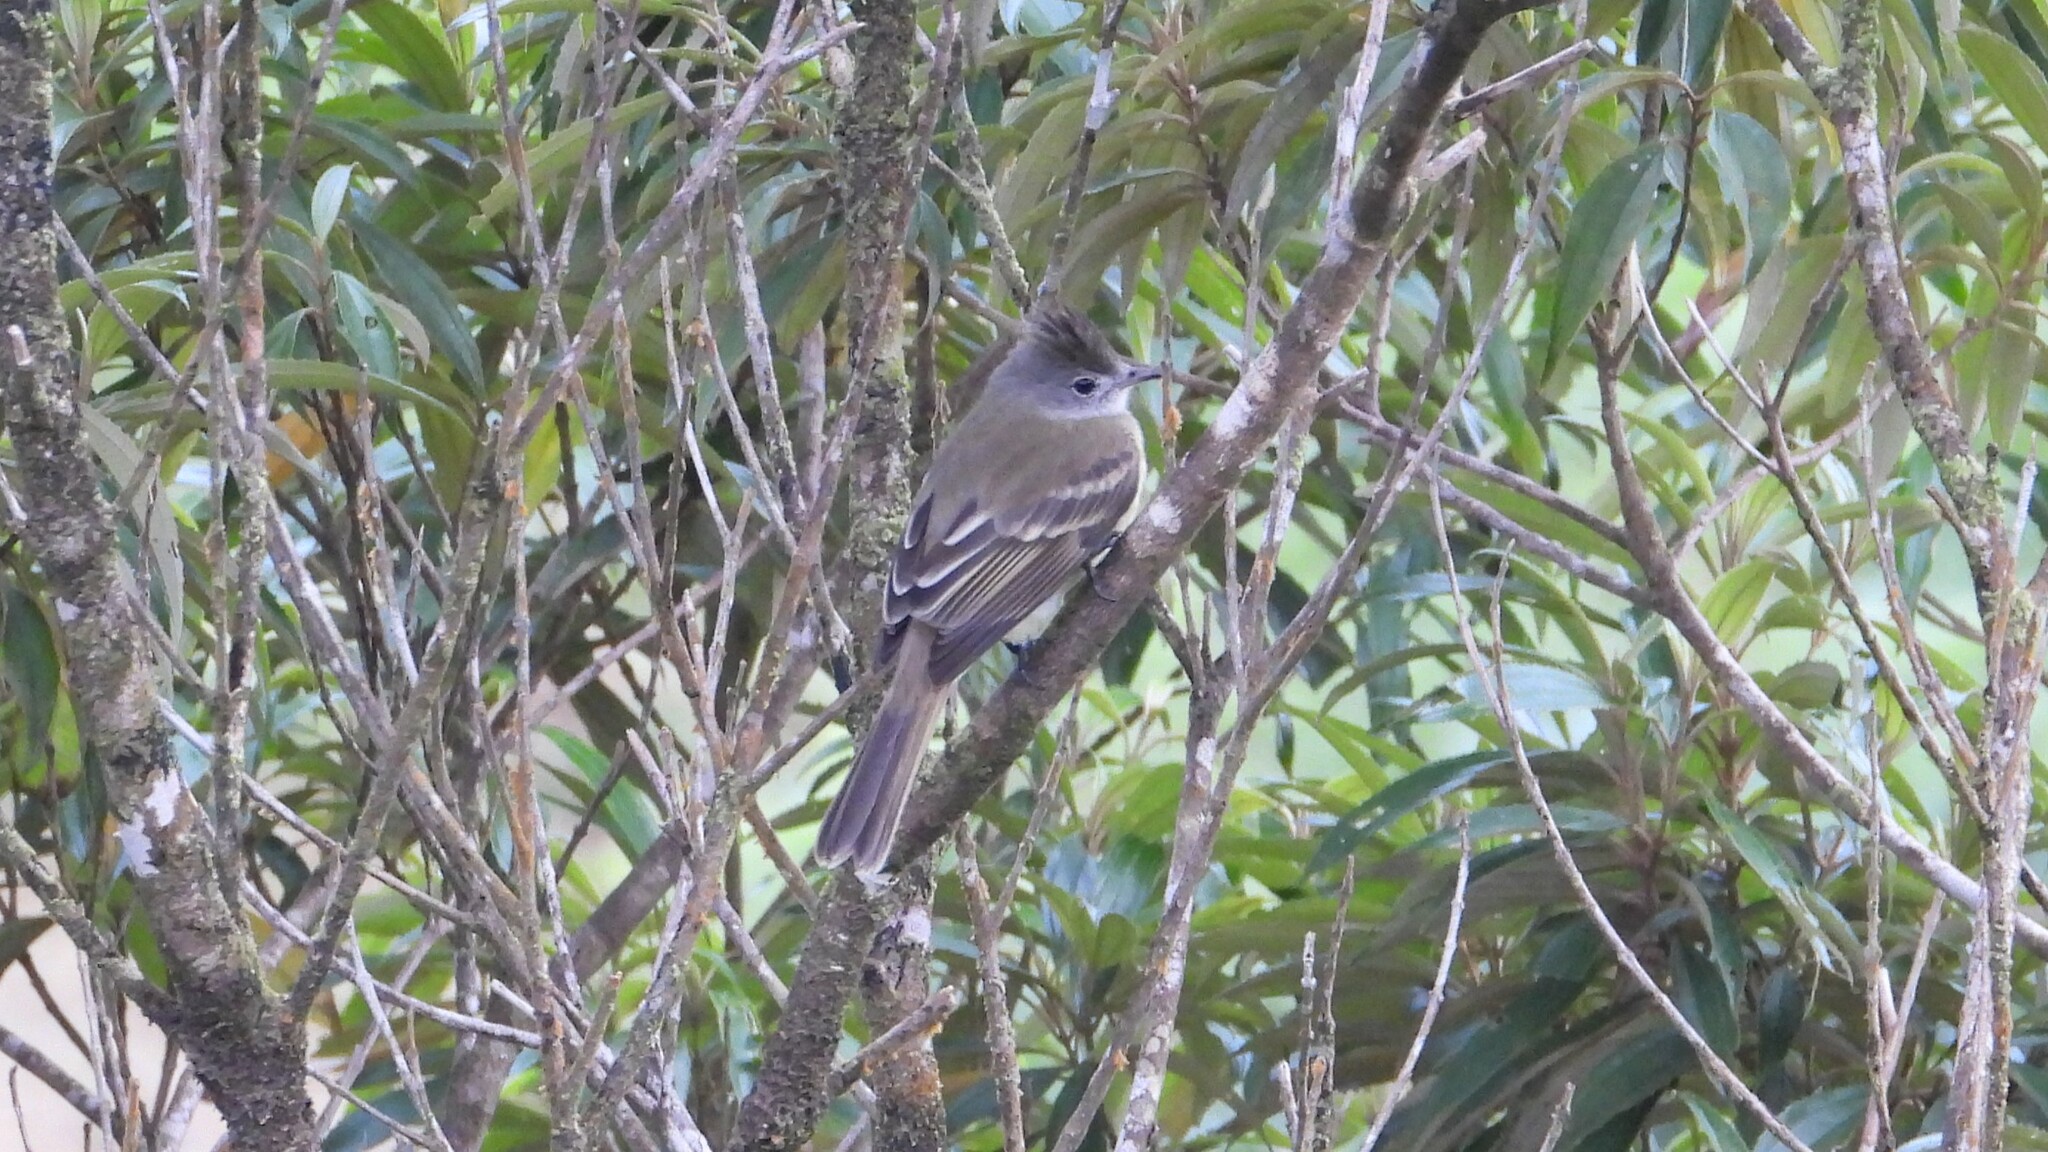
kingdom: Animalia
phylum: Chordata
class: Aves
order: Passeriformes
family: Tyrannidae
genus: Elaenia
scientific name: Elaenia flavogaster
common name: Yellow-bellied elaenia
